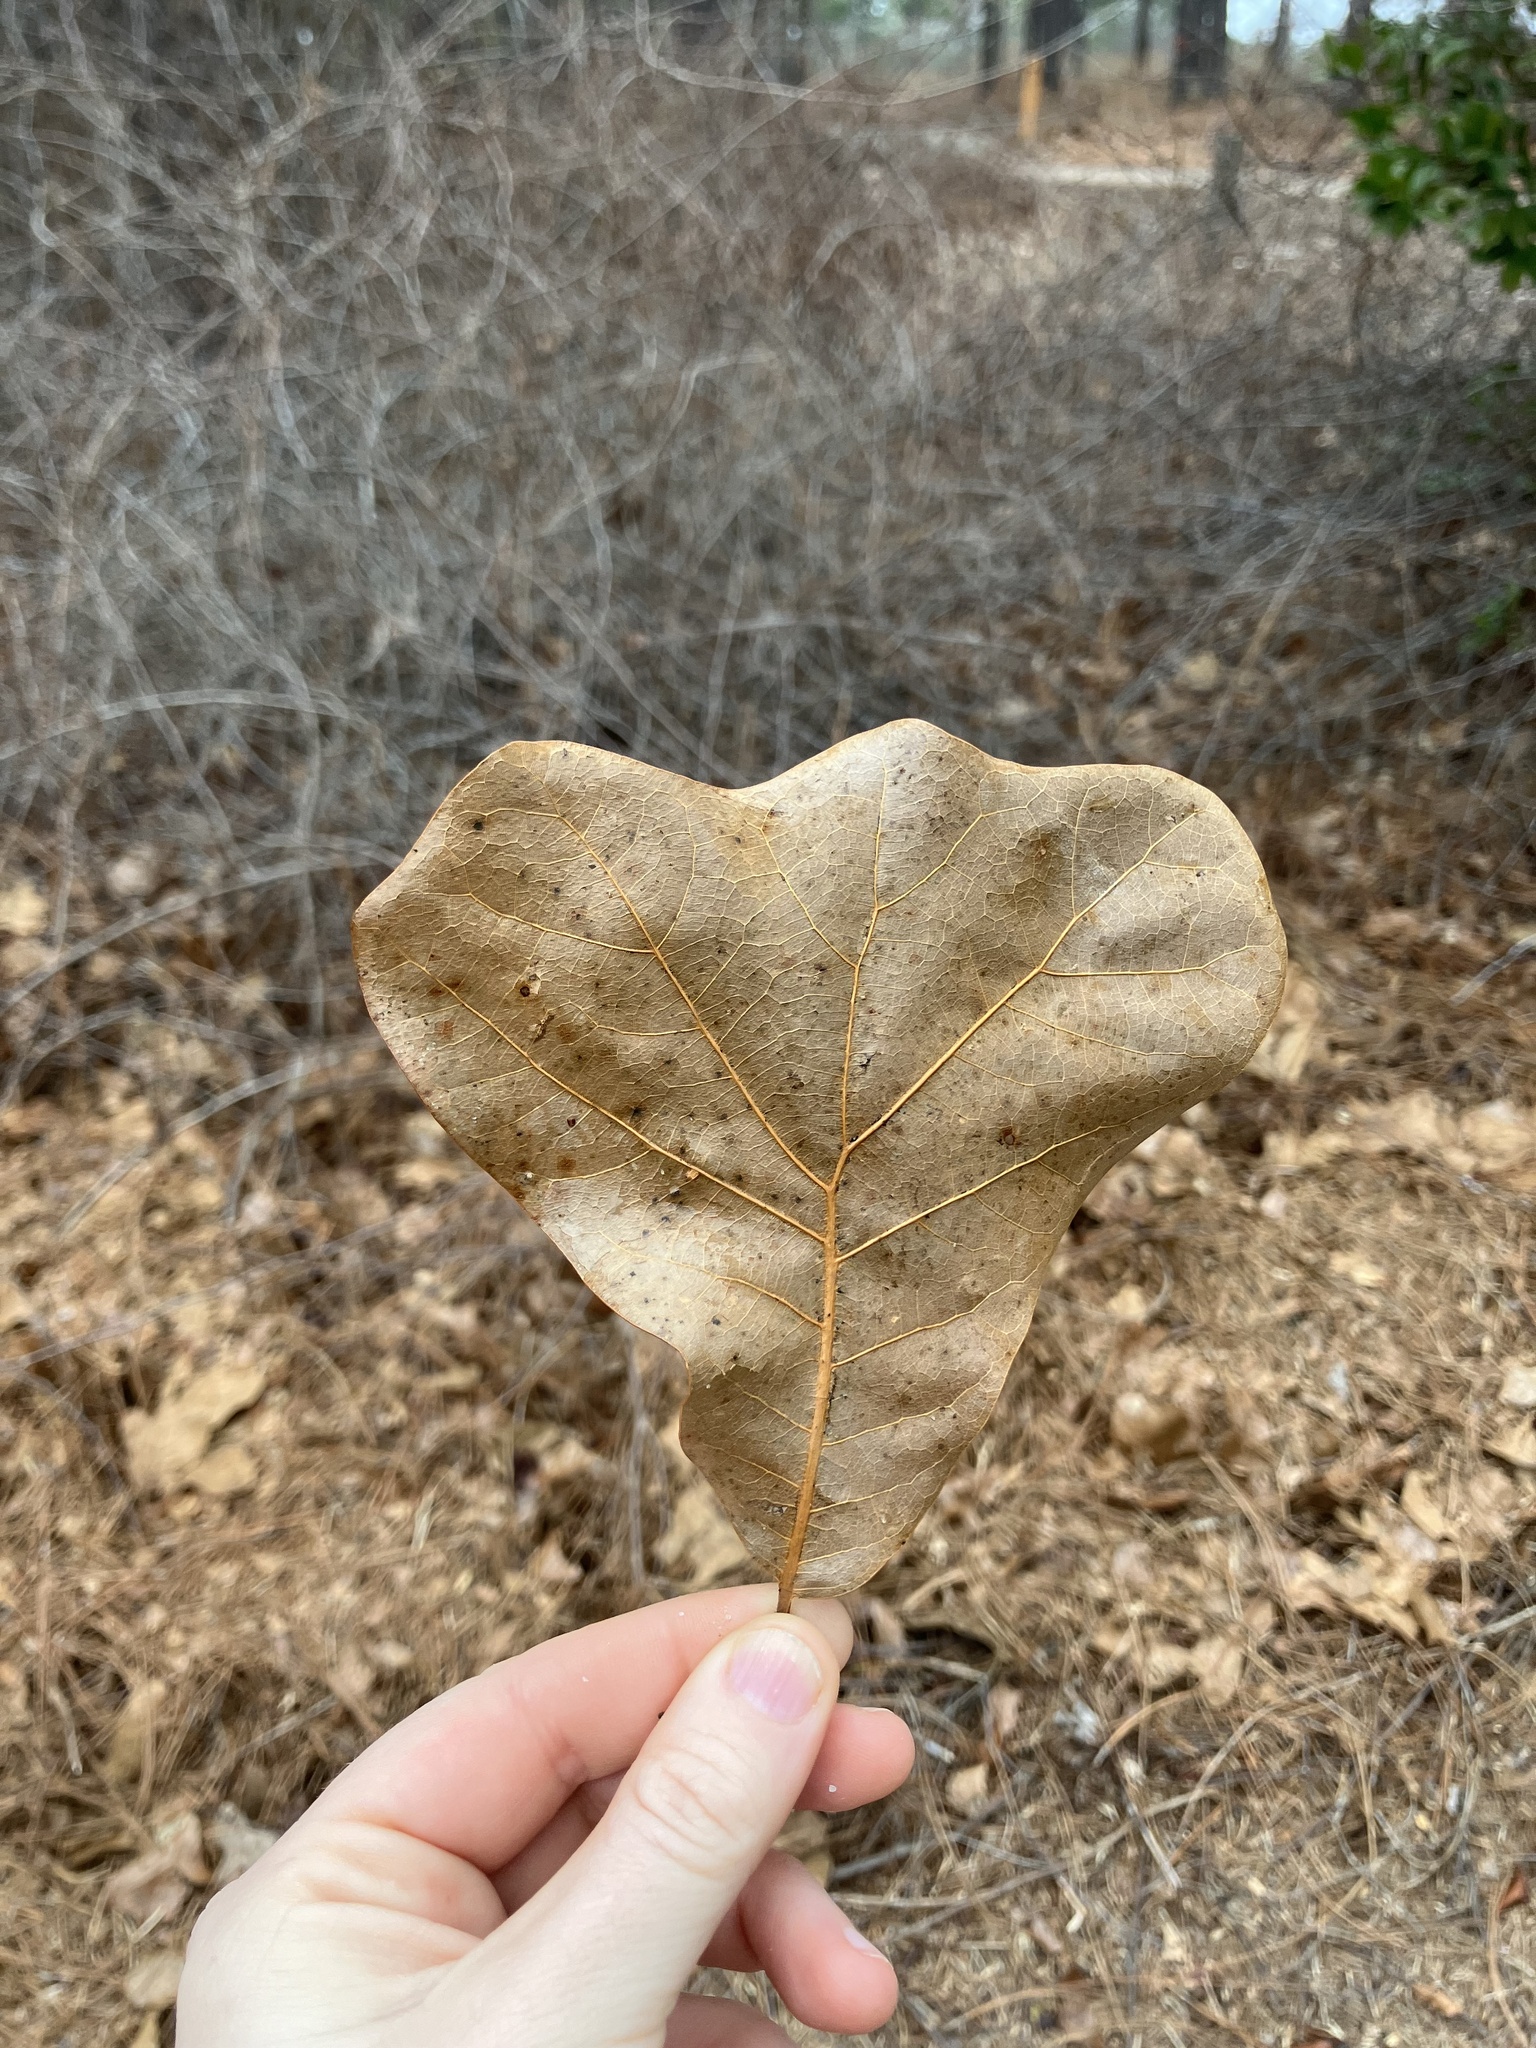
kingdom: Plantae
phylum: Tracheophyta
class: Magnoliopsida
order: Fagales
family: Fagaceae
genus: Quercus
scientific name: Quercus marilandica
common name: Blackjack oak
